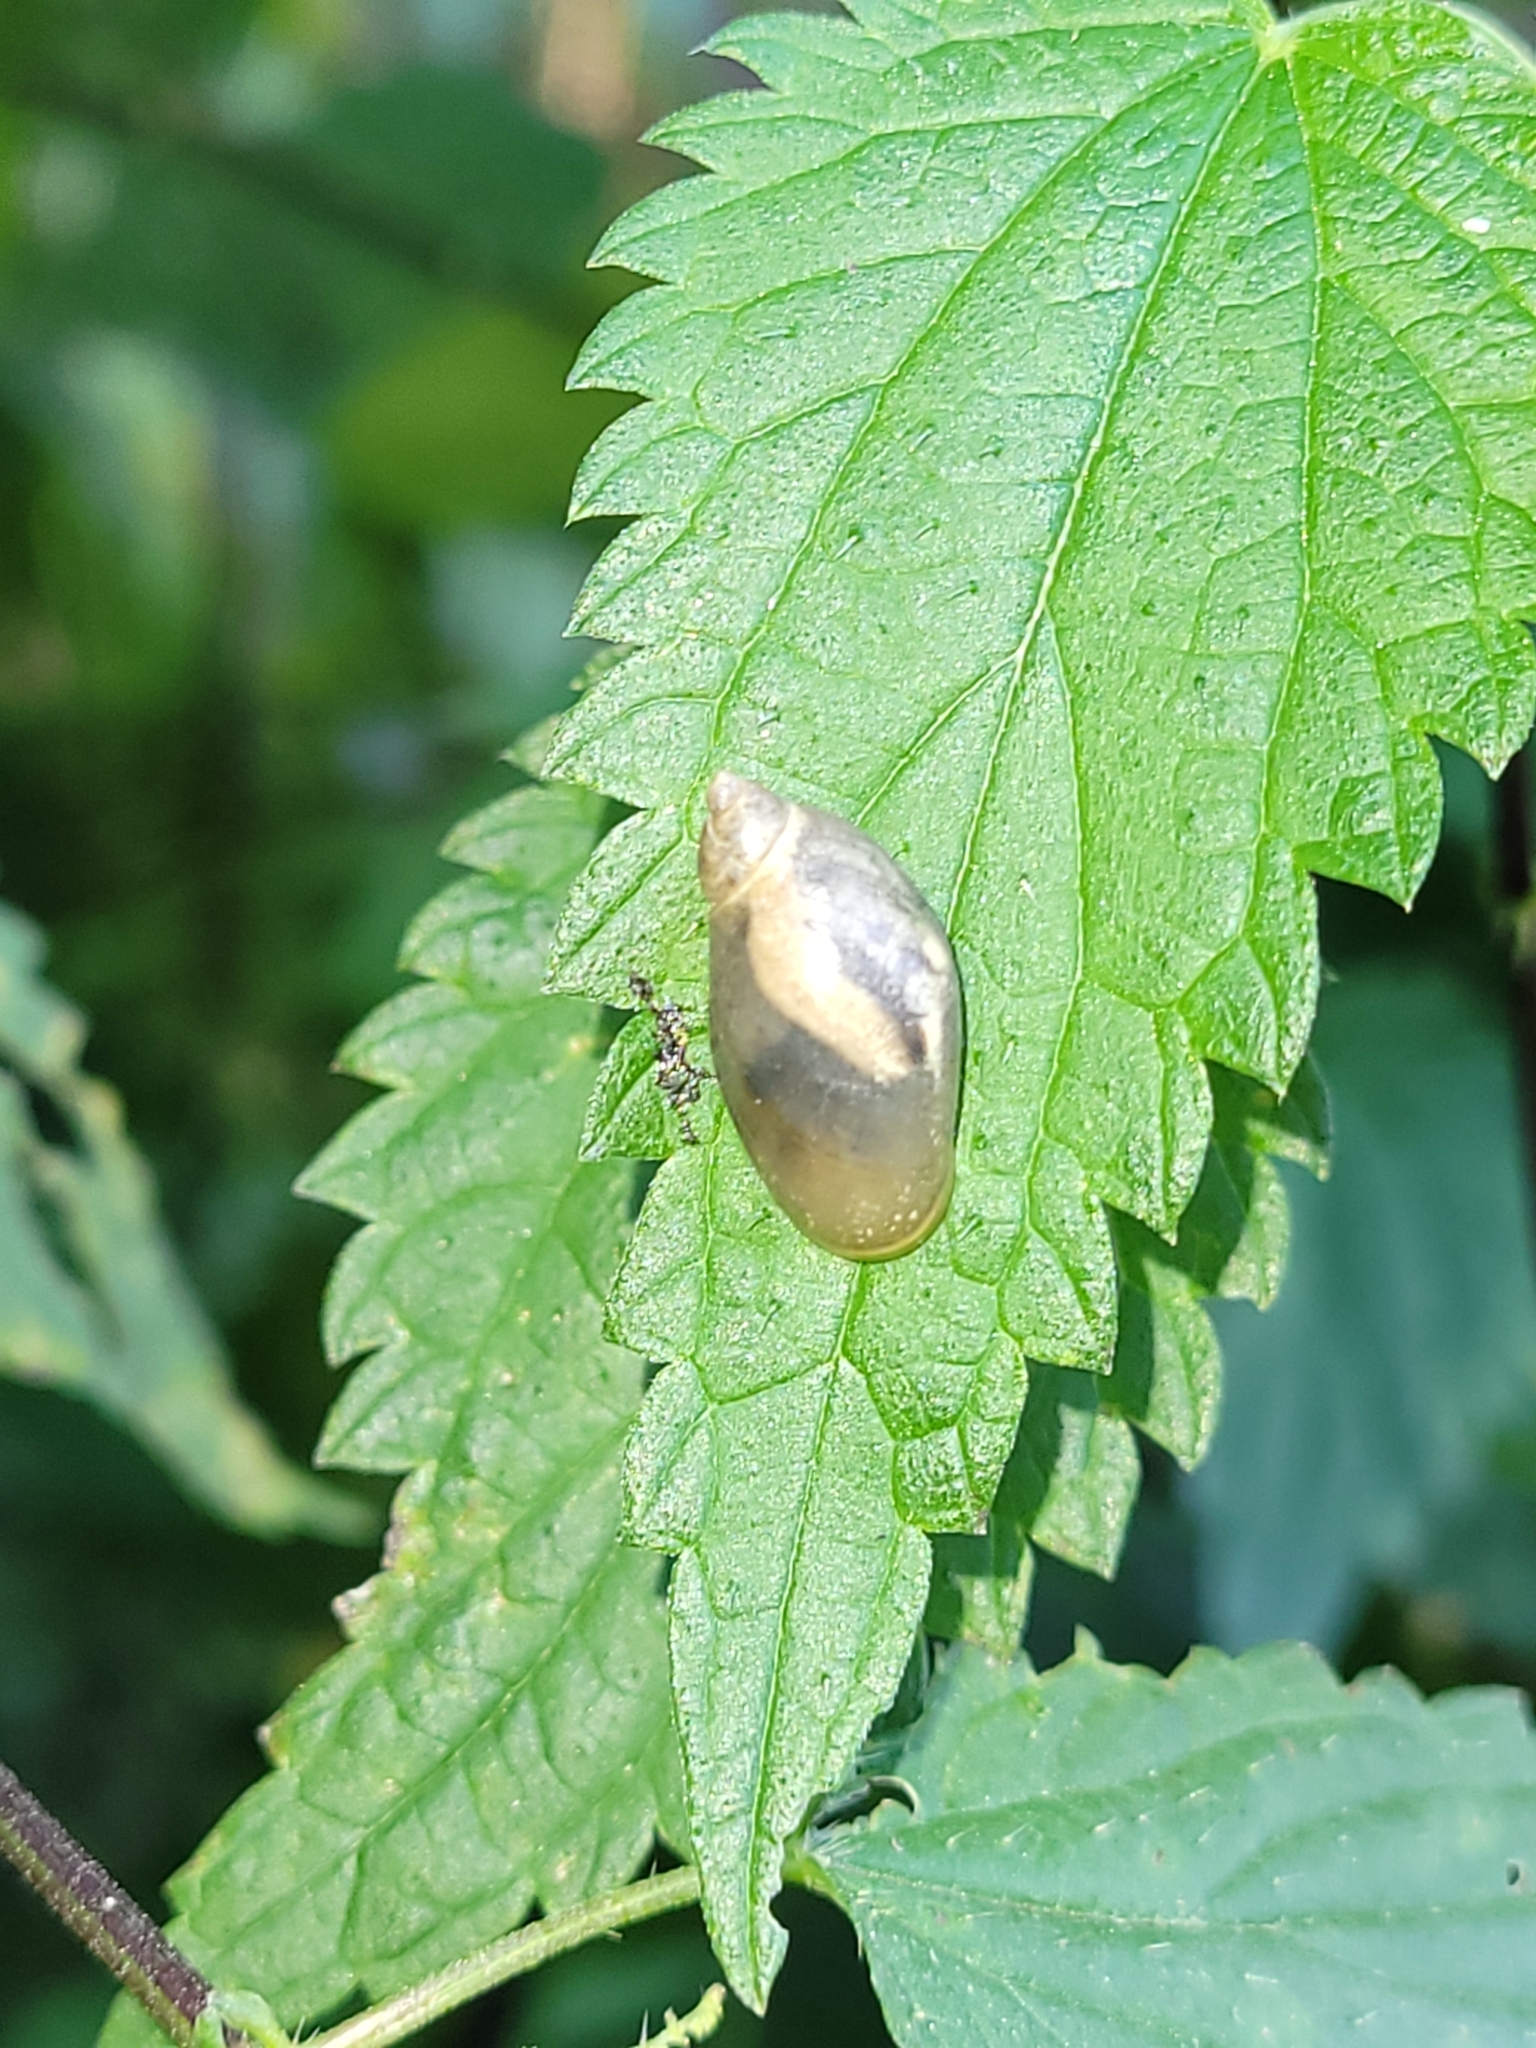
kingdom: Animalia
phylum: Mollusca
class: Gastropoda
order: Stylommatophora
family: Succineidae
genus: Succinea
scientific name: Succinea putris
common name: European ambersnail
